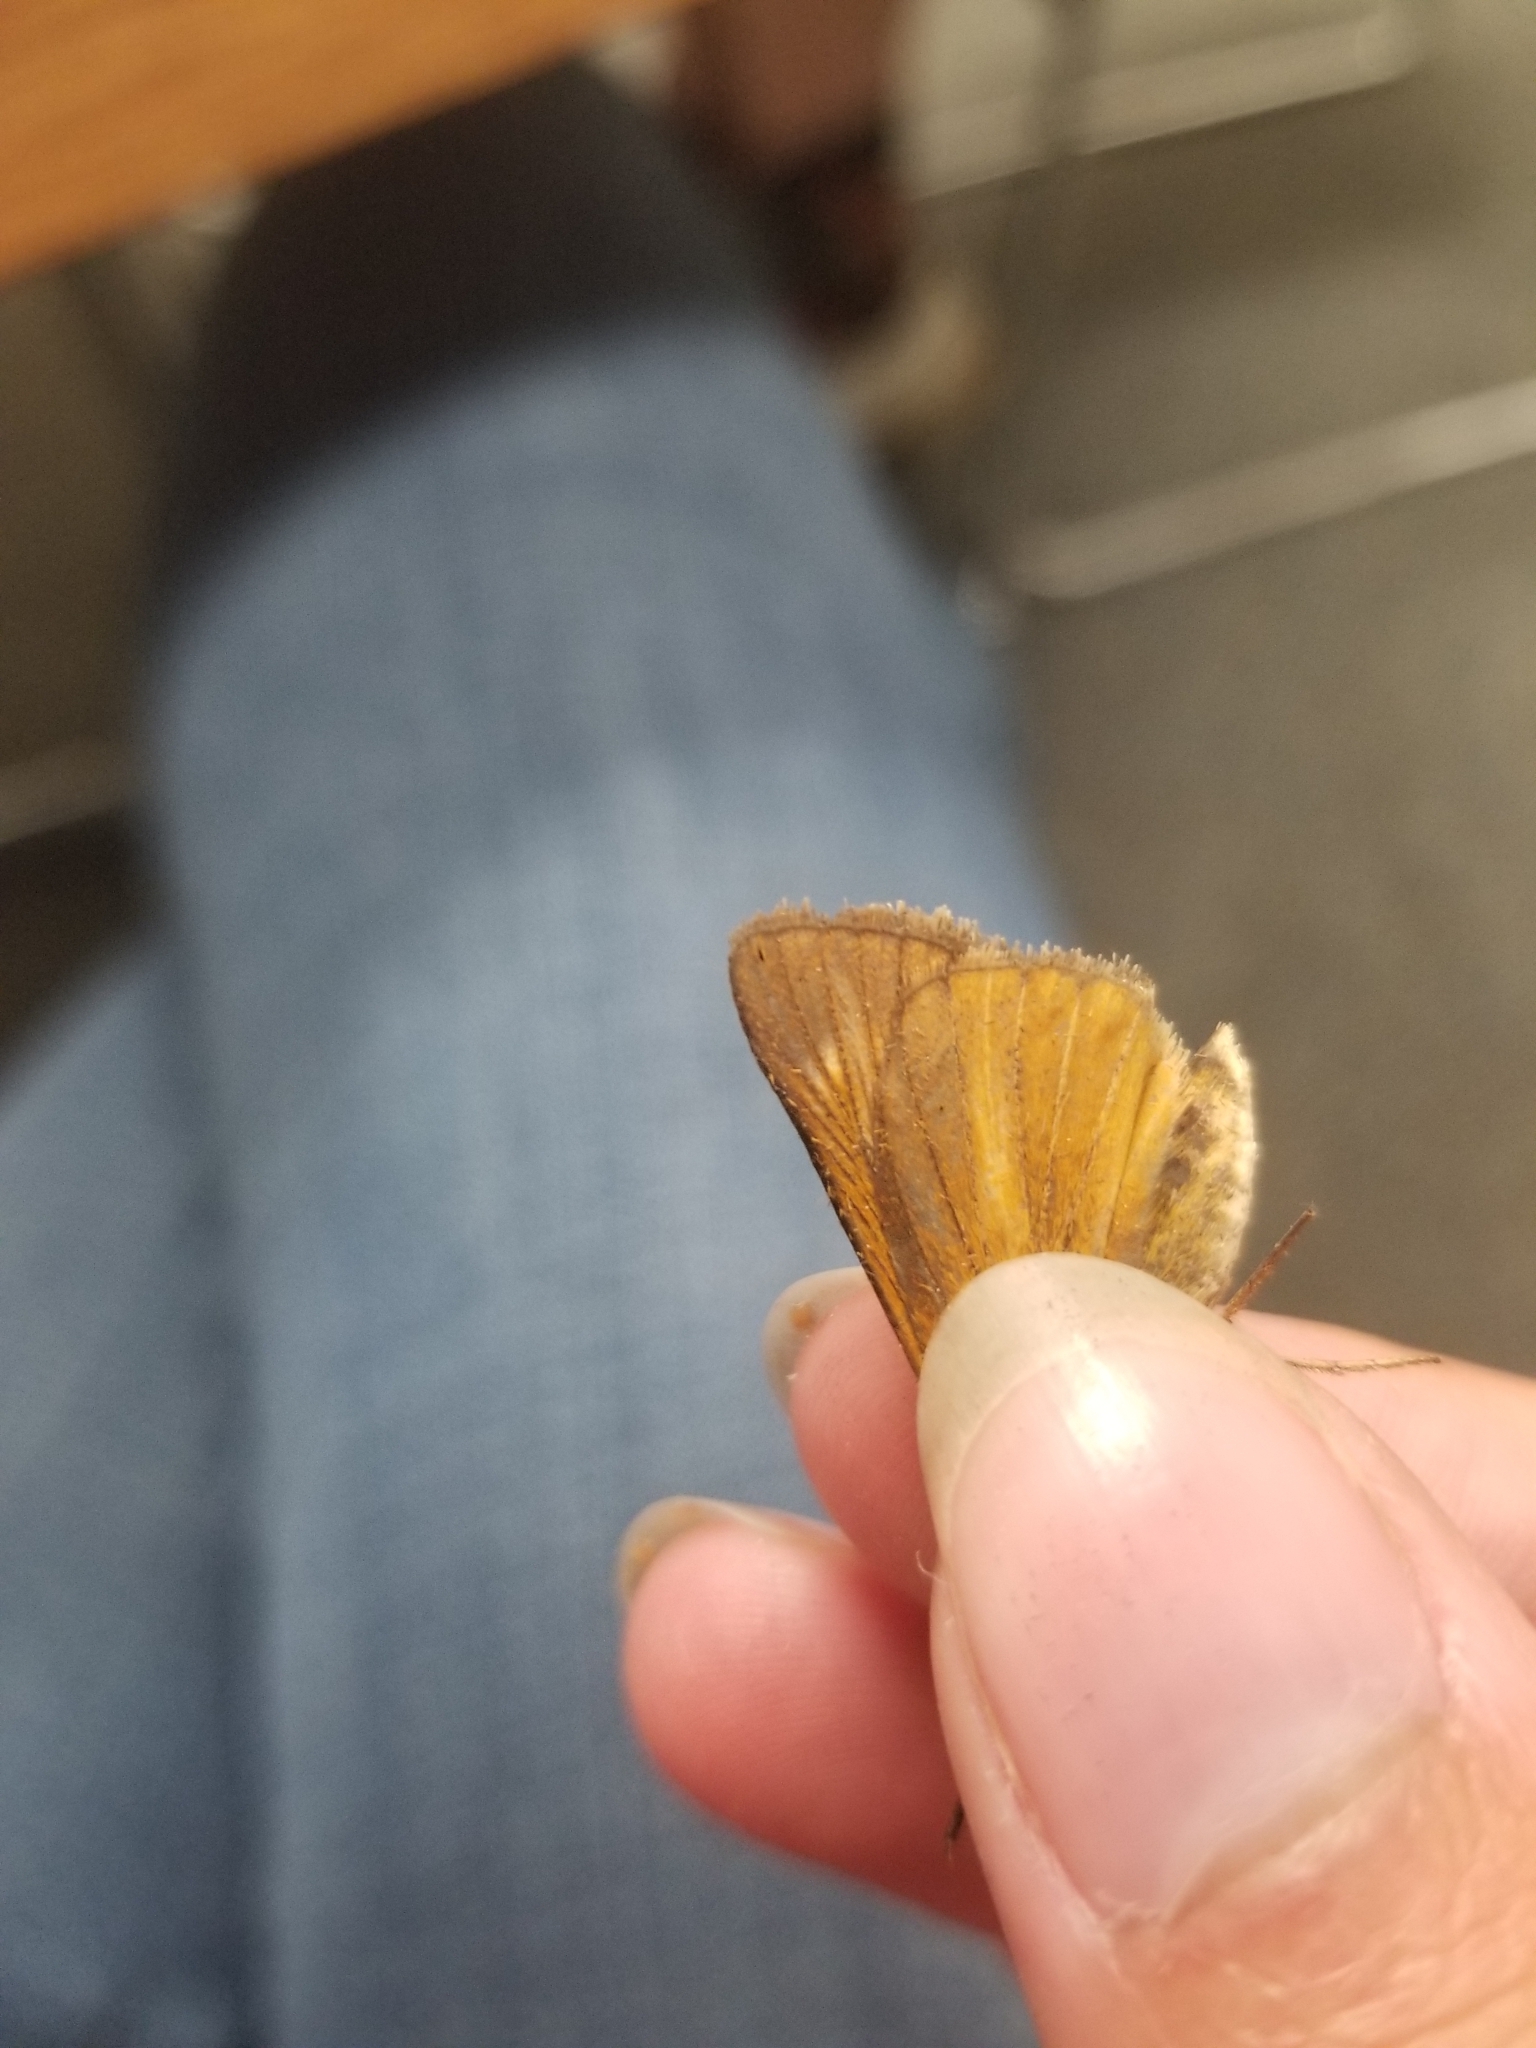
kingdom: Animalia
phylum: Arthropoda
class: Insecta
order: Lepidoptera
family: Hesperiidae
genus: Euphyes
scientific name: Euphyes dion
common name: Dion skipper
